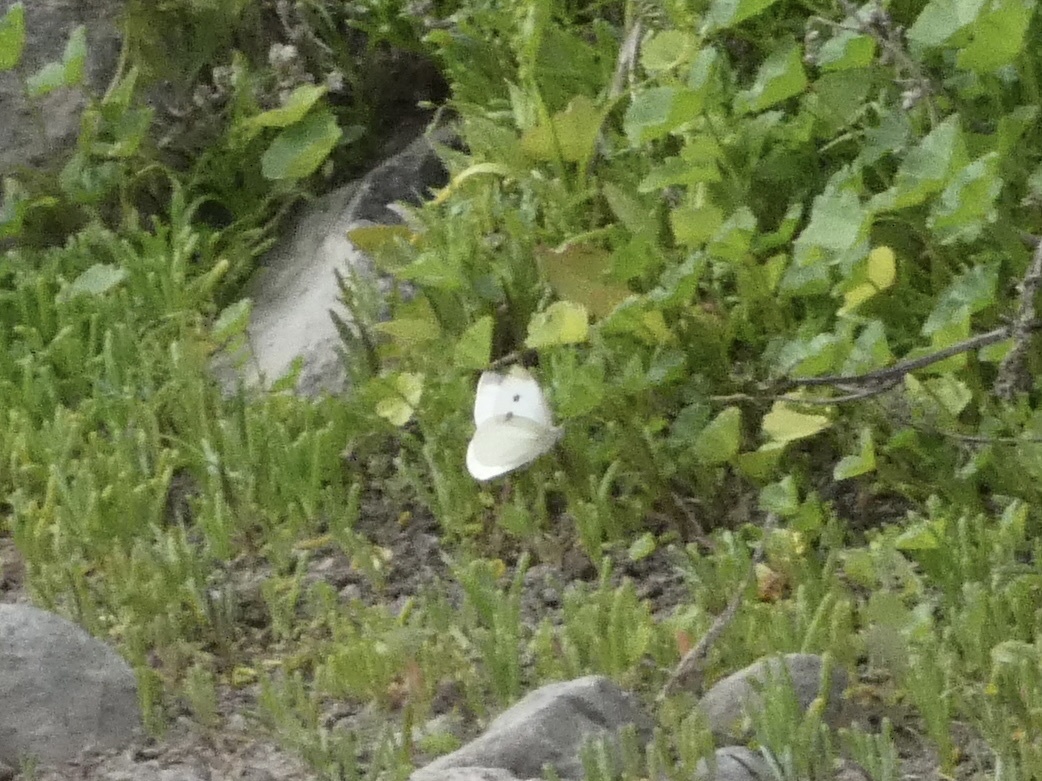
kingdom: Animalia
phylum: Arthropoda
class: Insecta
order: Lepidoptera
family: Pieridae
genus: Pieris
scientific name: Pieris rapae
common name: Small white
